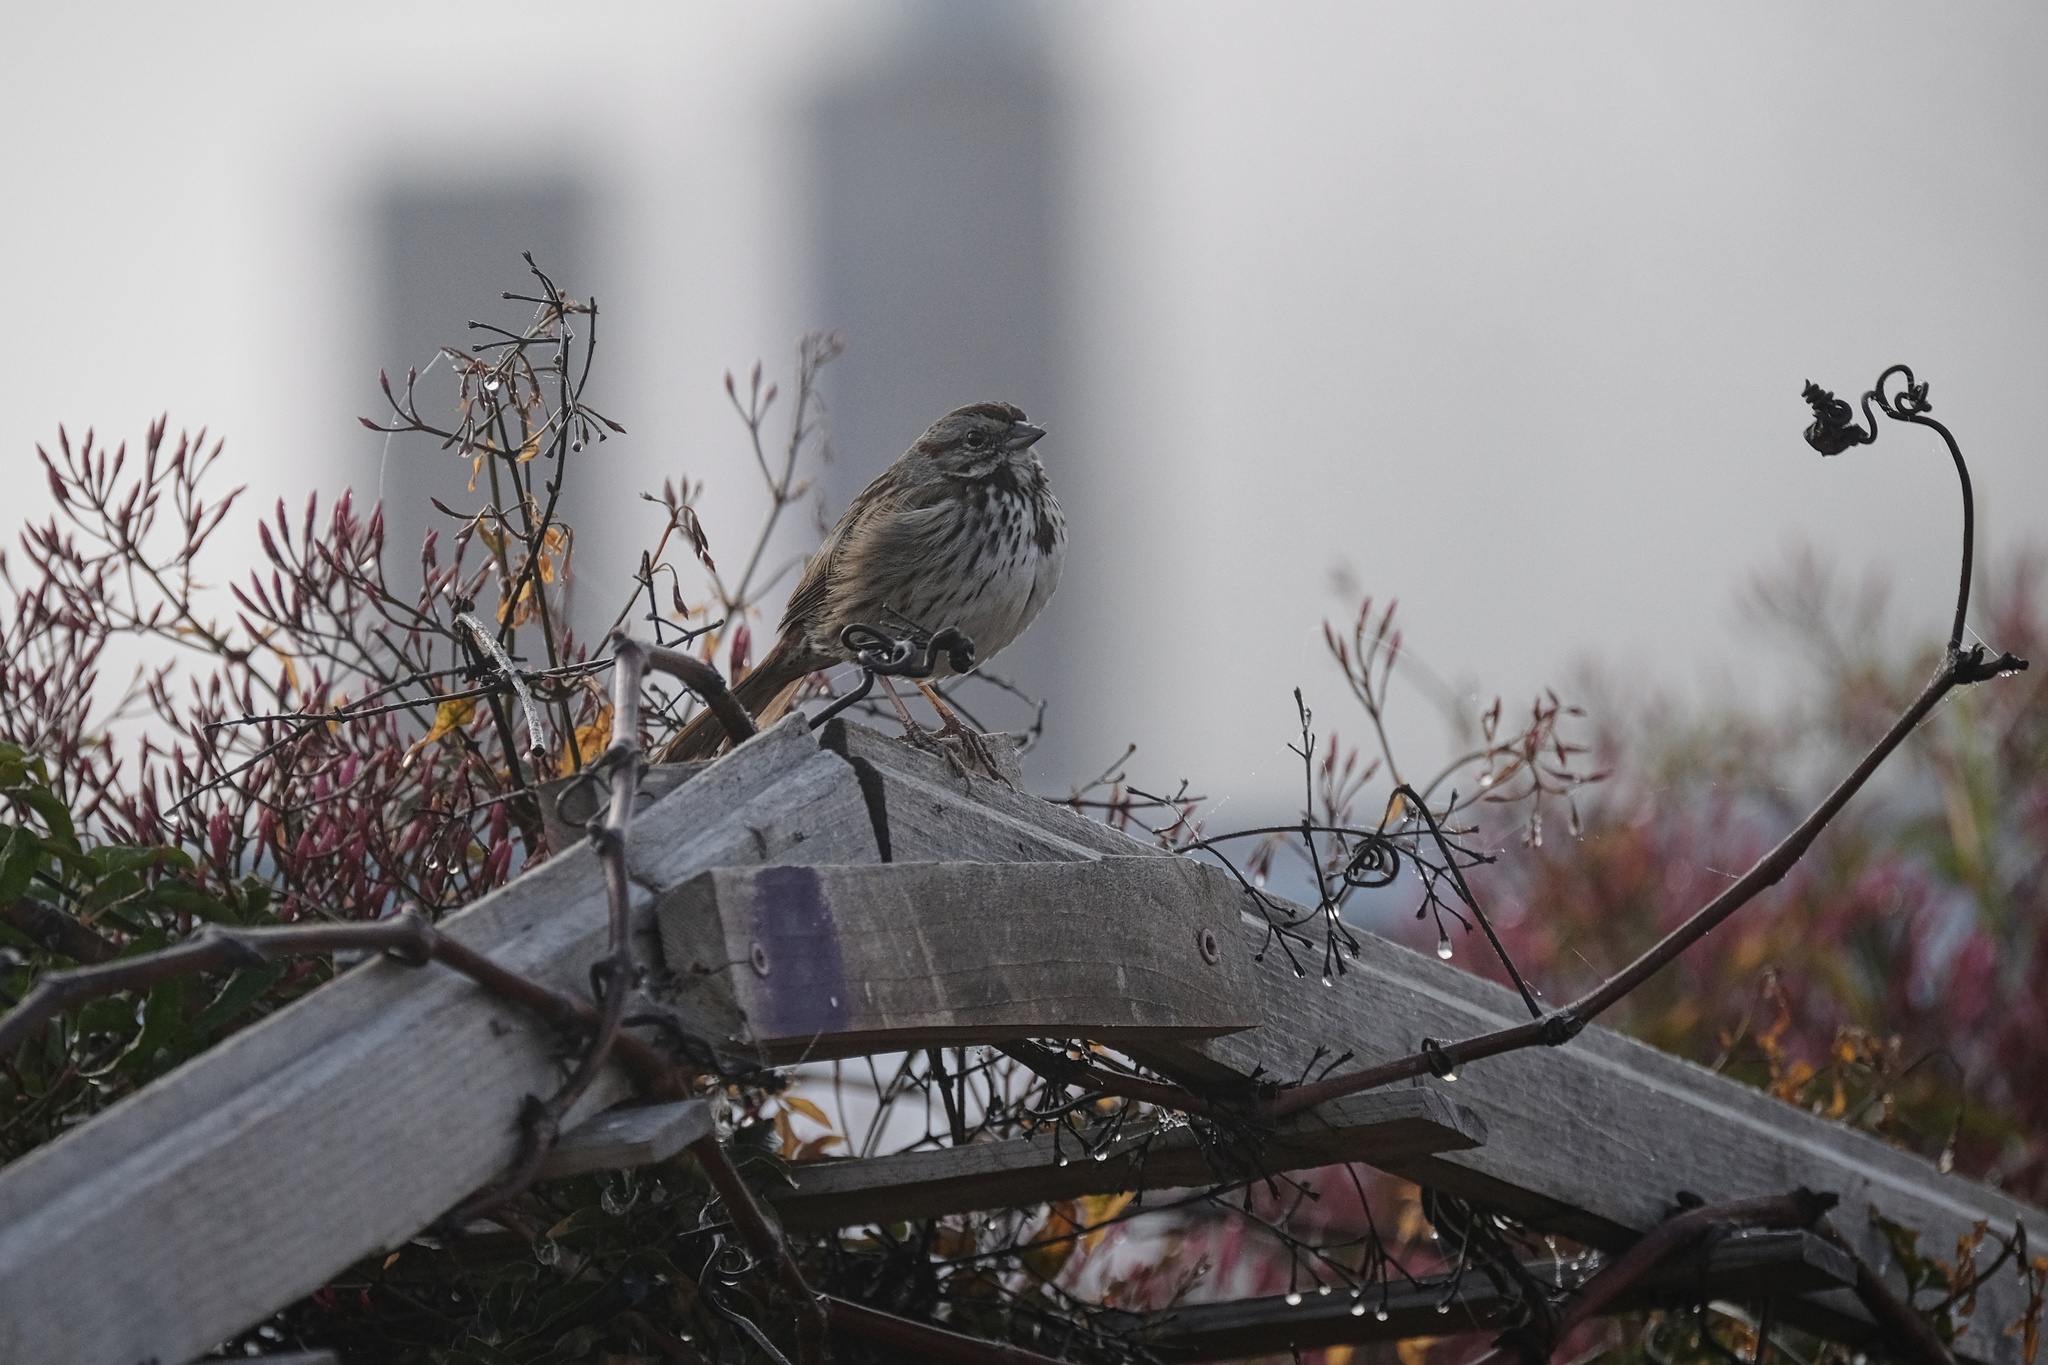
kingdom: Animalia
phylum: Chordata
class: Aves
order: Passeriformes
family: Passerellidae
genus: Melospiza
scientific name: Melospiza melodia
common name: Song sparrow
